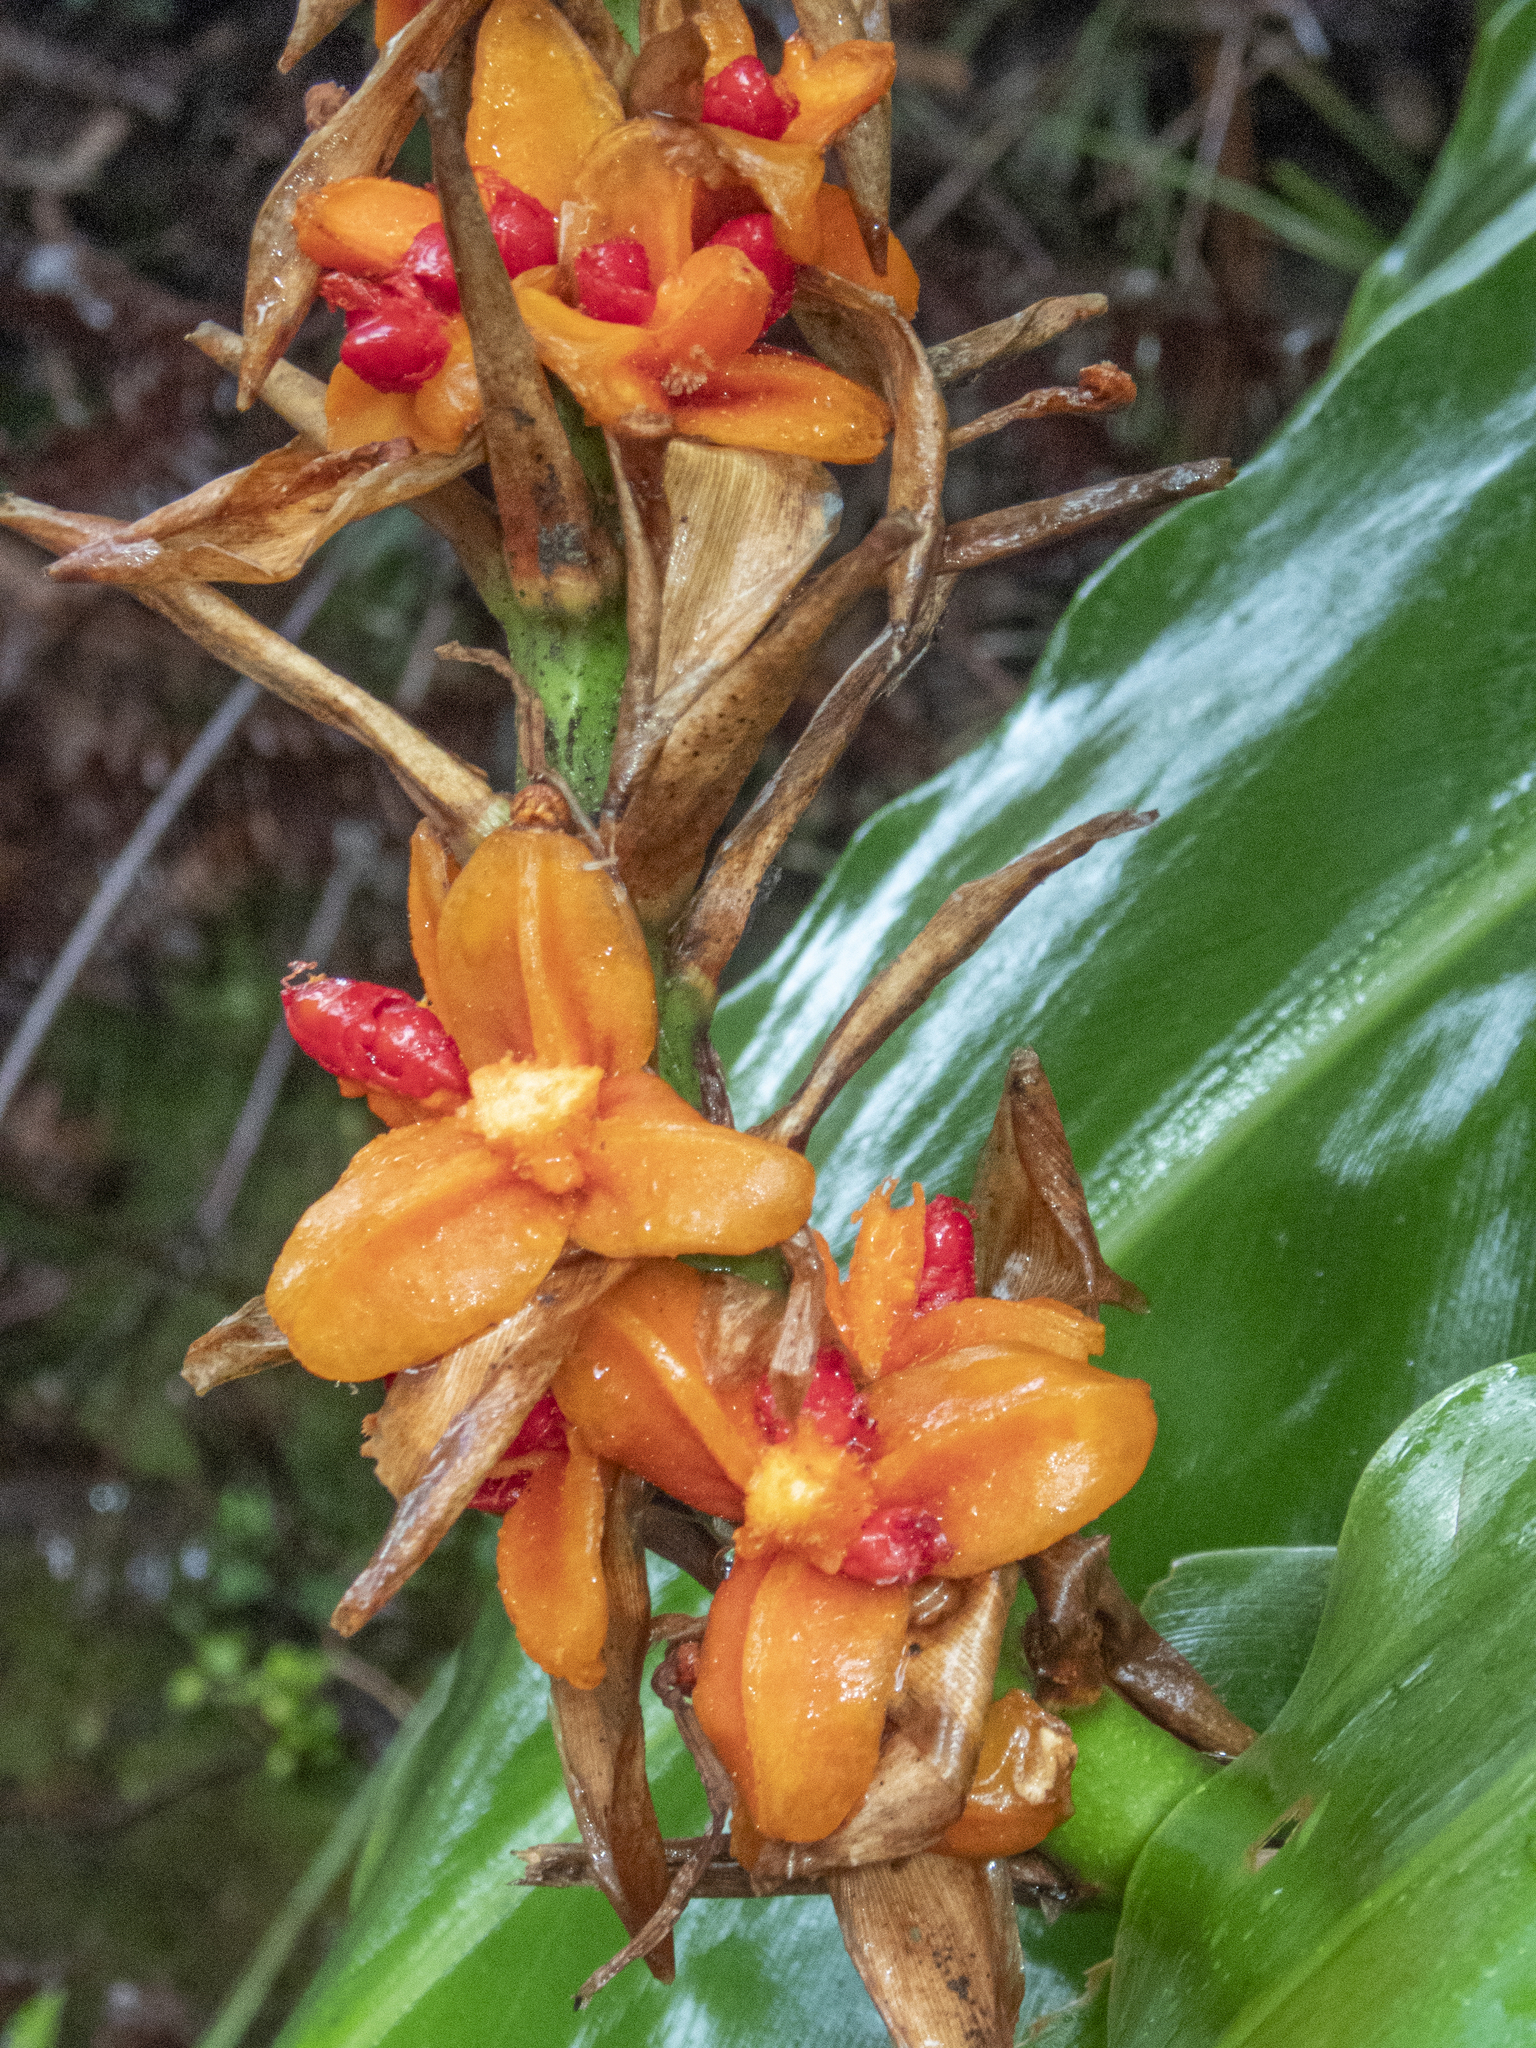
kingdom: Plantae
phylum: Tracheophyta
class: Liliopsida
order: Zingiberales
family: Zingiberaceae
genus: Hedychium
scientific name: Hedychium gardnerianum
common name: Himalayan ginger
